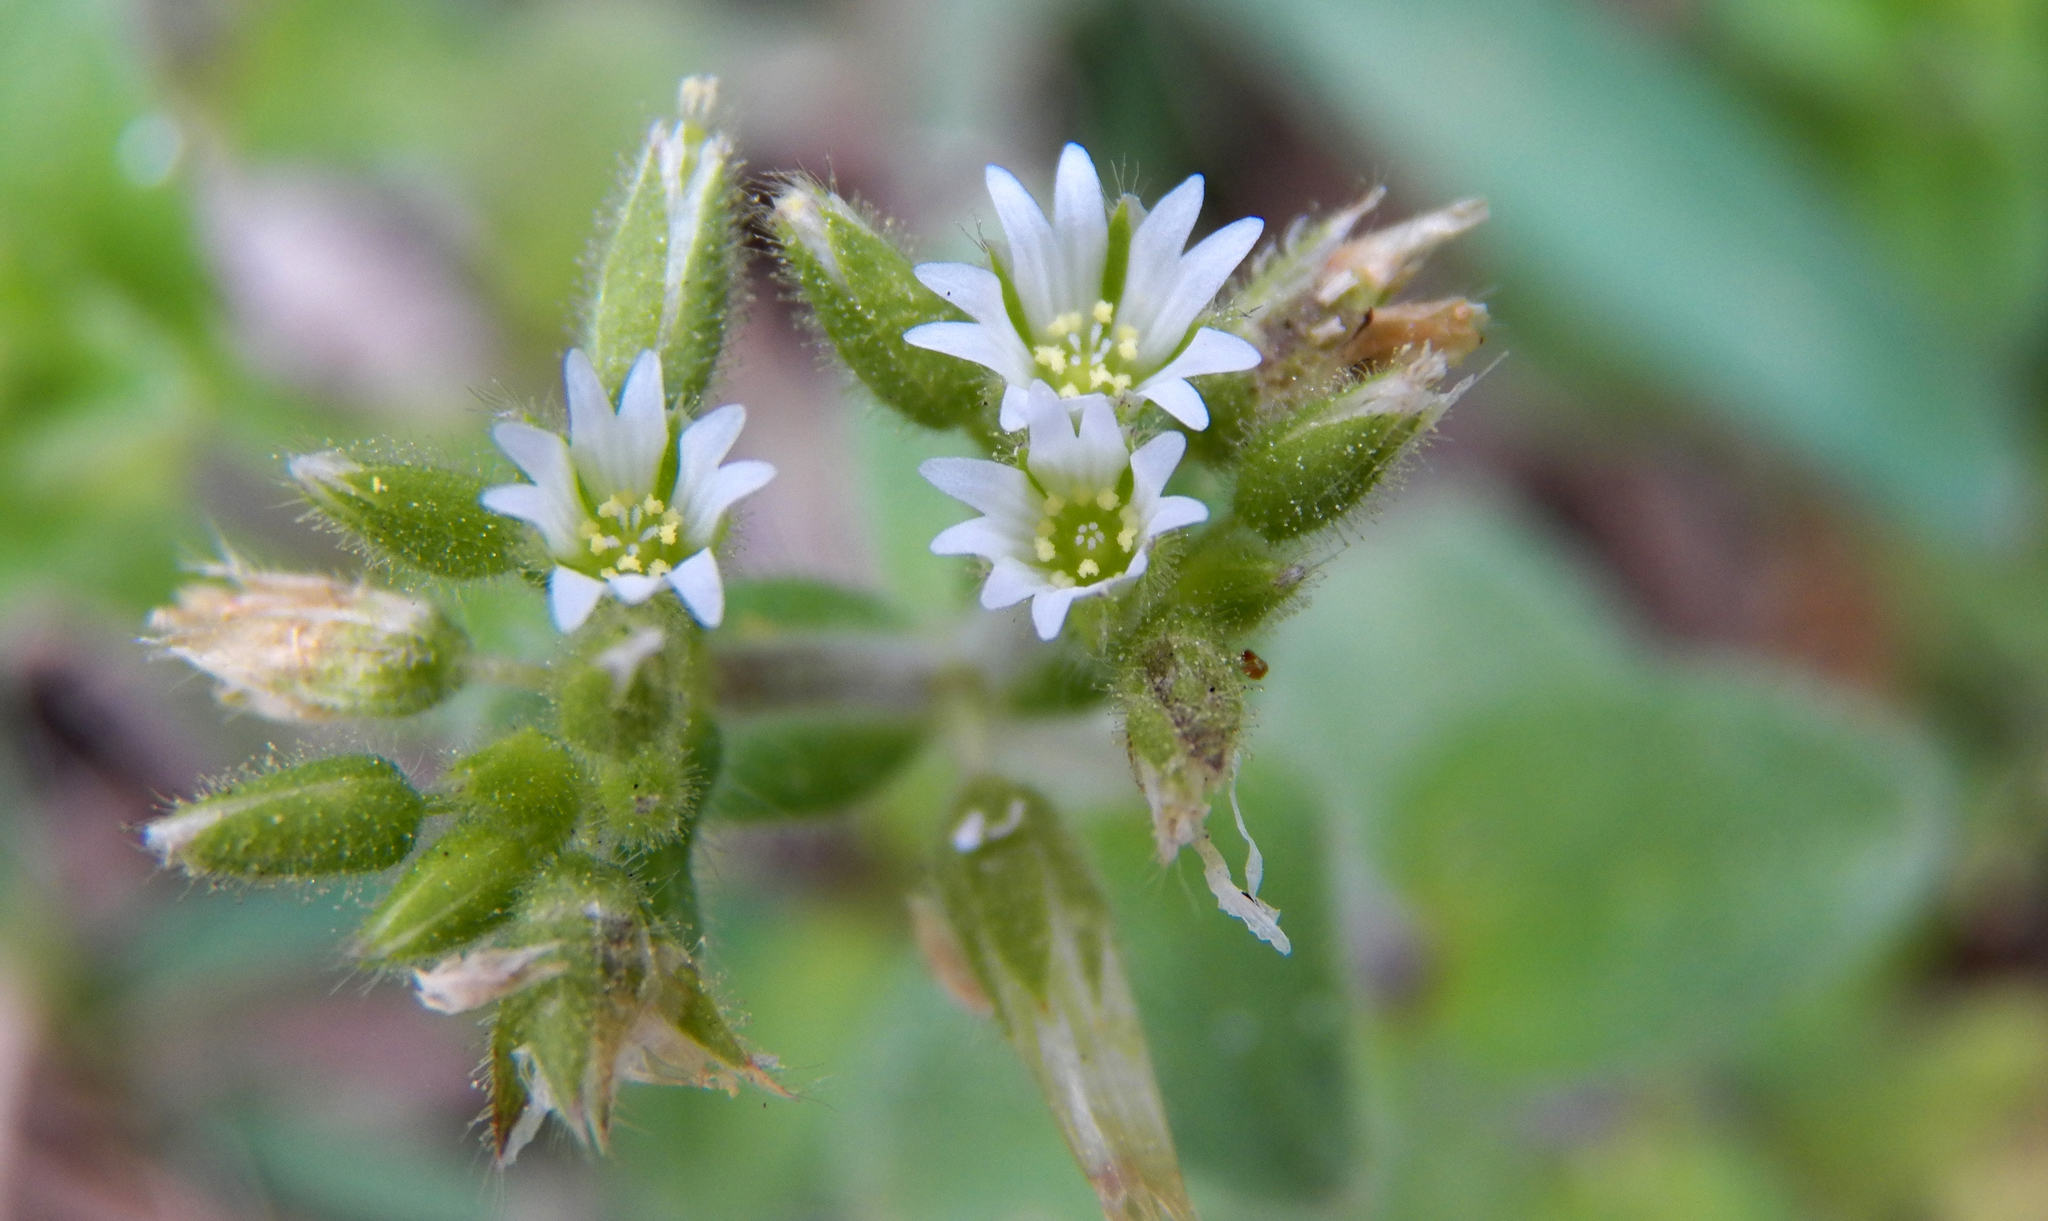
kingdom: Plantae
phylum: Tracheophyta
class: Magnoliopsida
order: Caryophyllales
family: Caryophyllaceae
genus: Cerastium
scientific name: Cerastium brachypodum
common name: Short-pedicelled nodding chickweed
